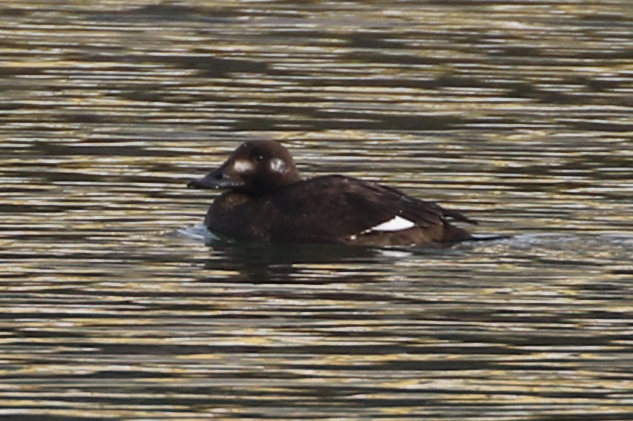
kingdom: Animalia
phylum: Chordata
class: Aves
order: Anseriformes
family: Anatidae
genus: Melanitta
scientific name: Melanitta deglandi
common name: White-winged scoter
